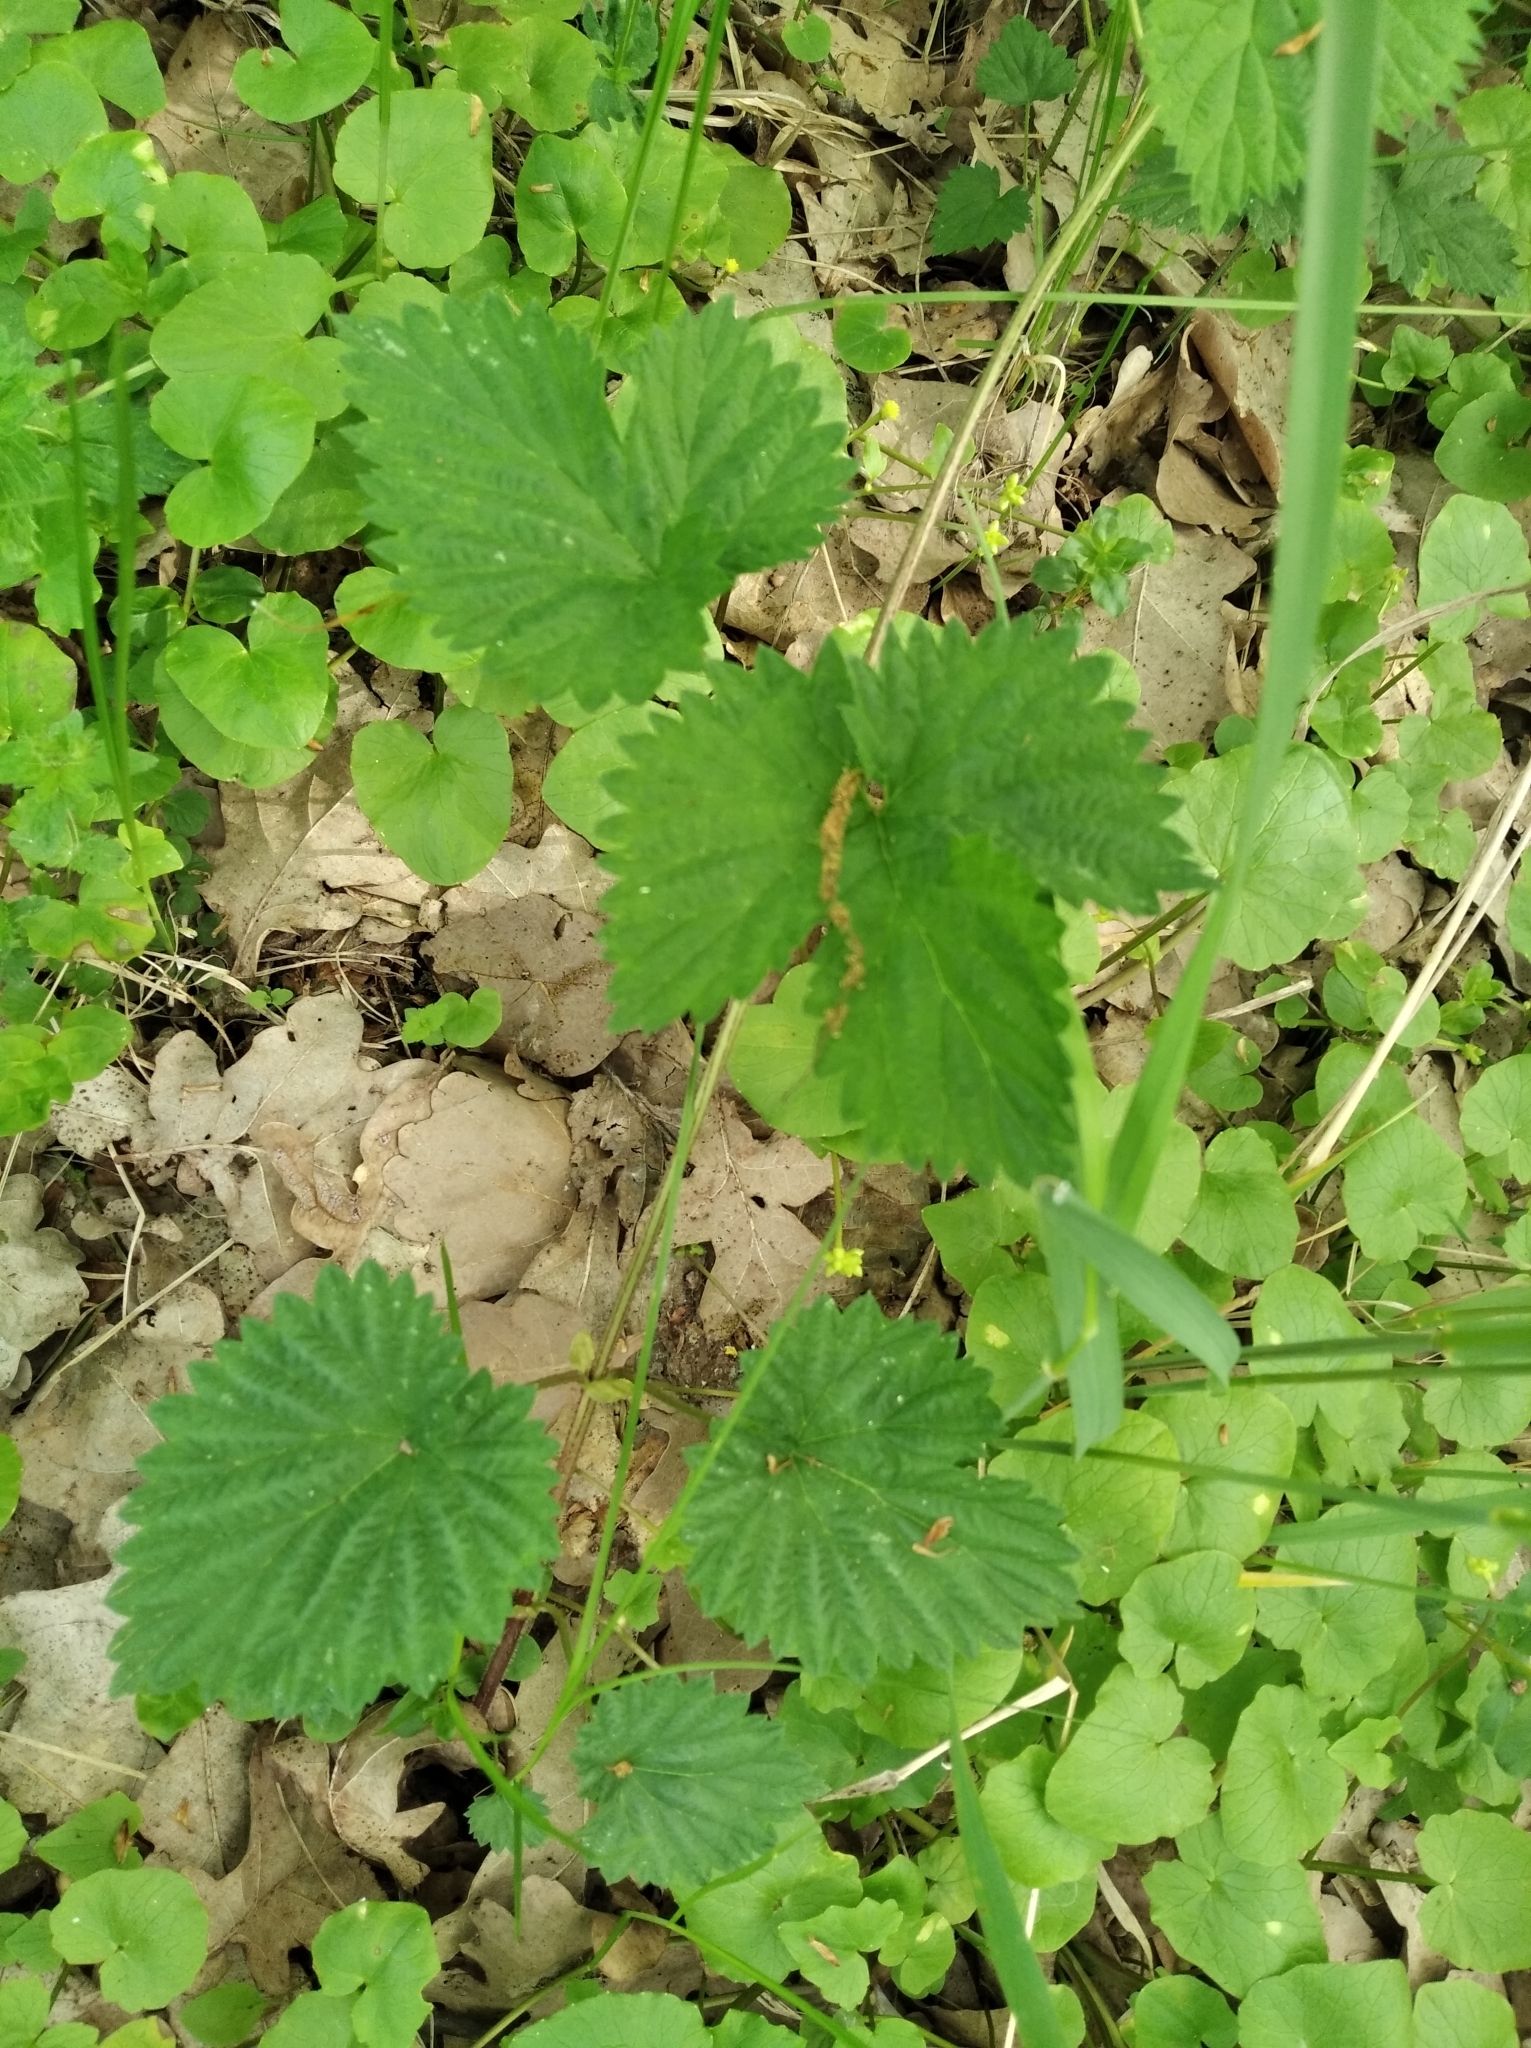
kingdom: Plantae
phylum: Tracheophyta
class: Magnoliopsida
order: Rosales
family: Cannabaceae
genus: Humulus
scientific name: Humulus lupulus
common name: Hop
